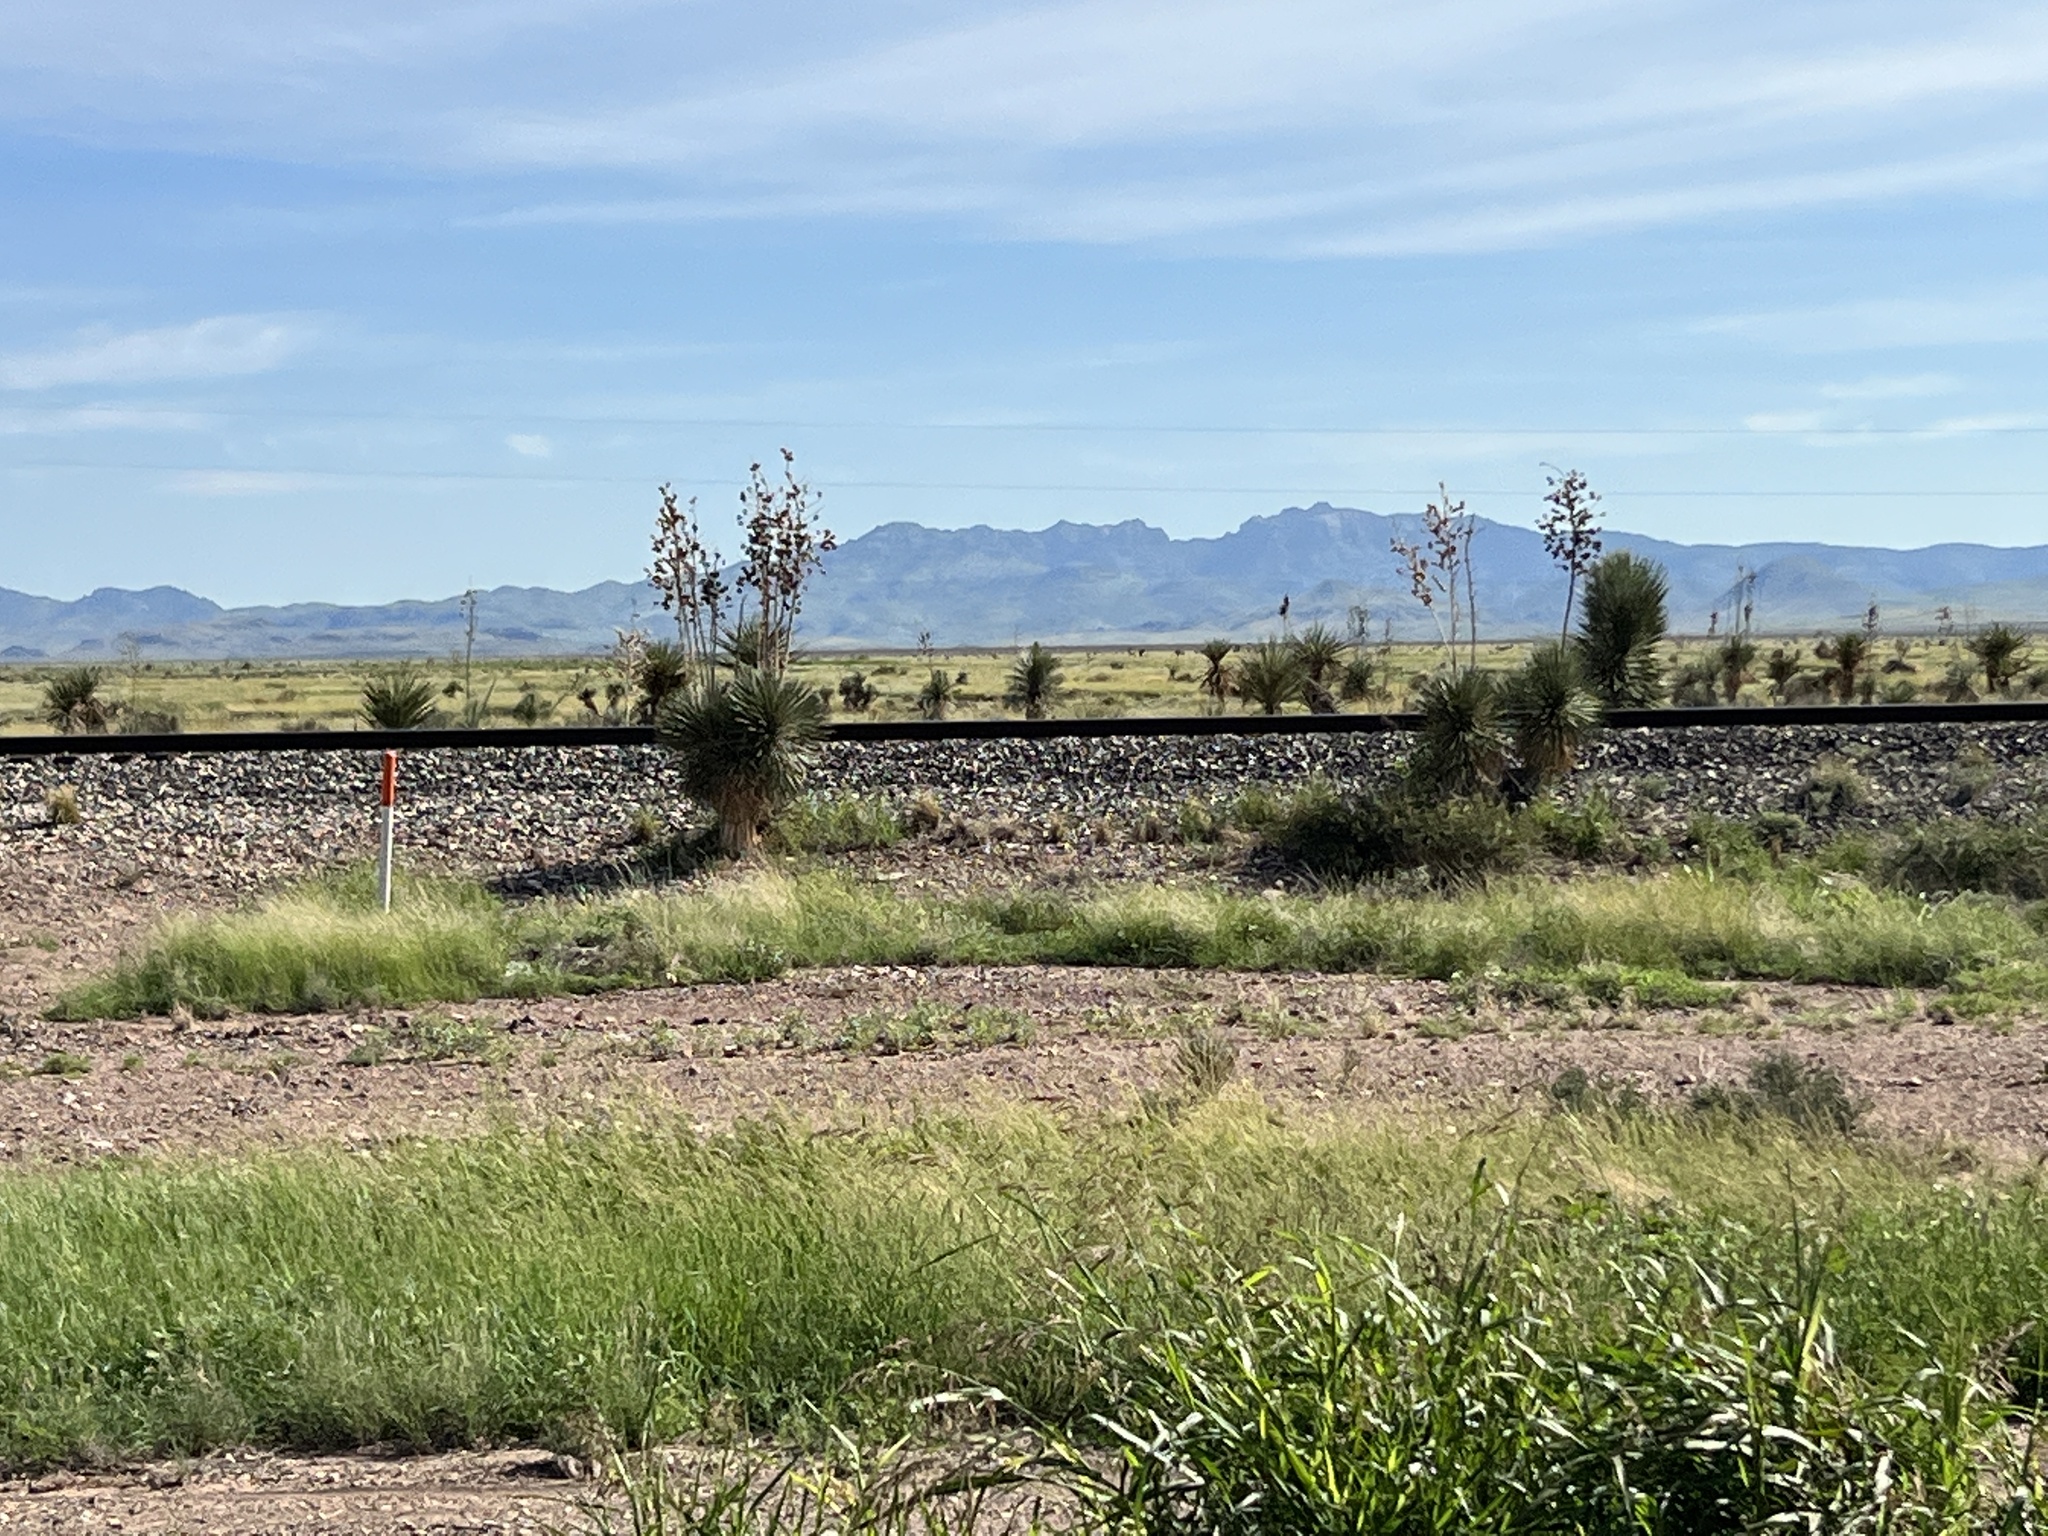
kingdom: Plantae
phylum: Tracheophyta
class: Liliopsida
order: Asparagales
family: Asparagaceae
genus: Yucca
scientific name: Yucca elata
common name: Palmella
